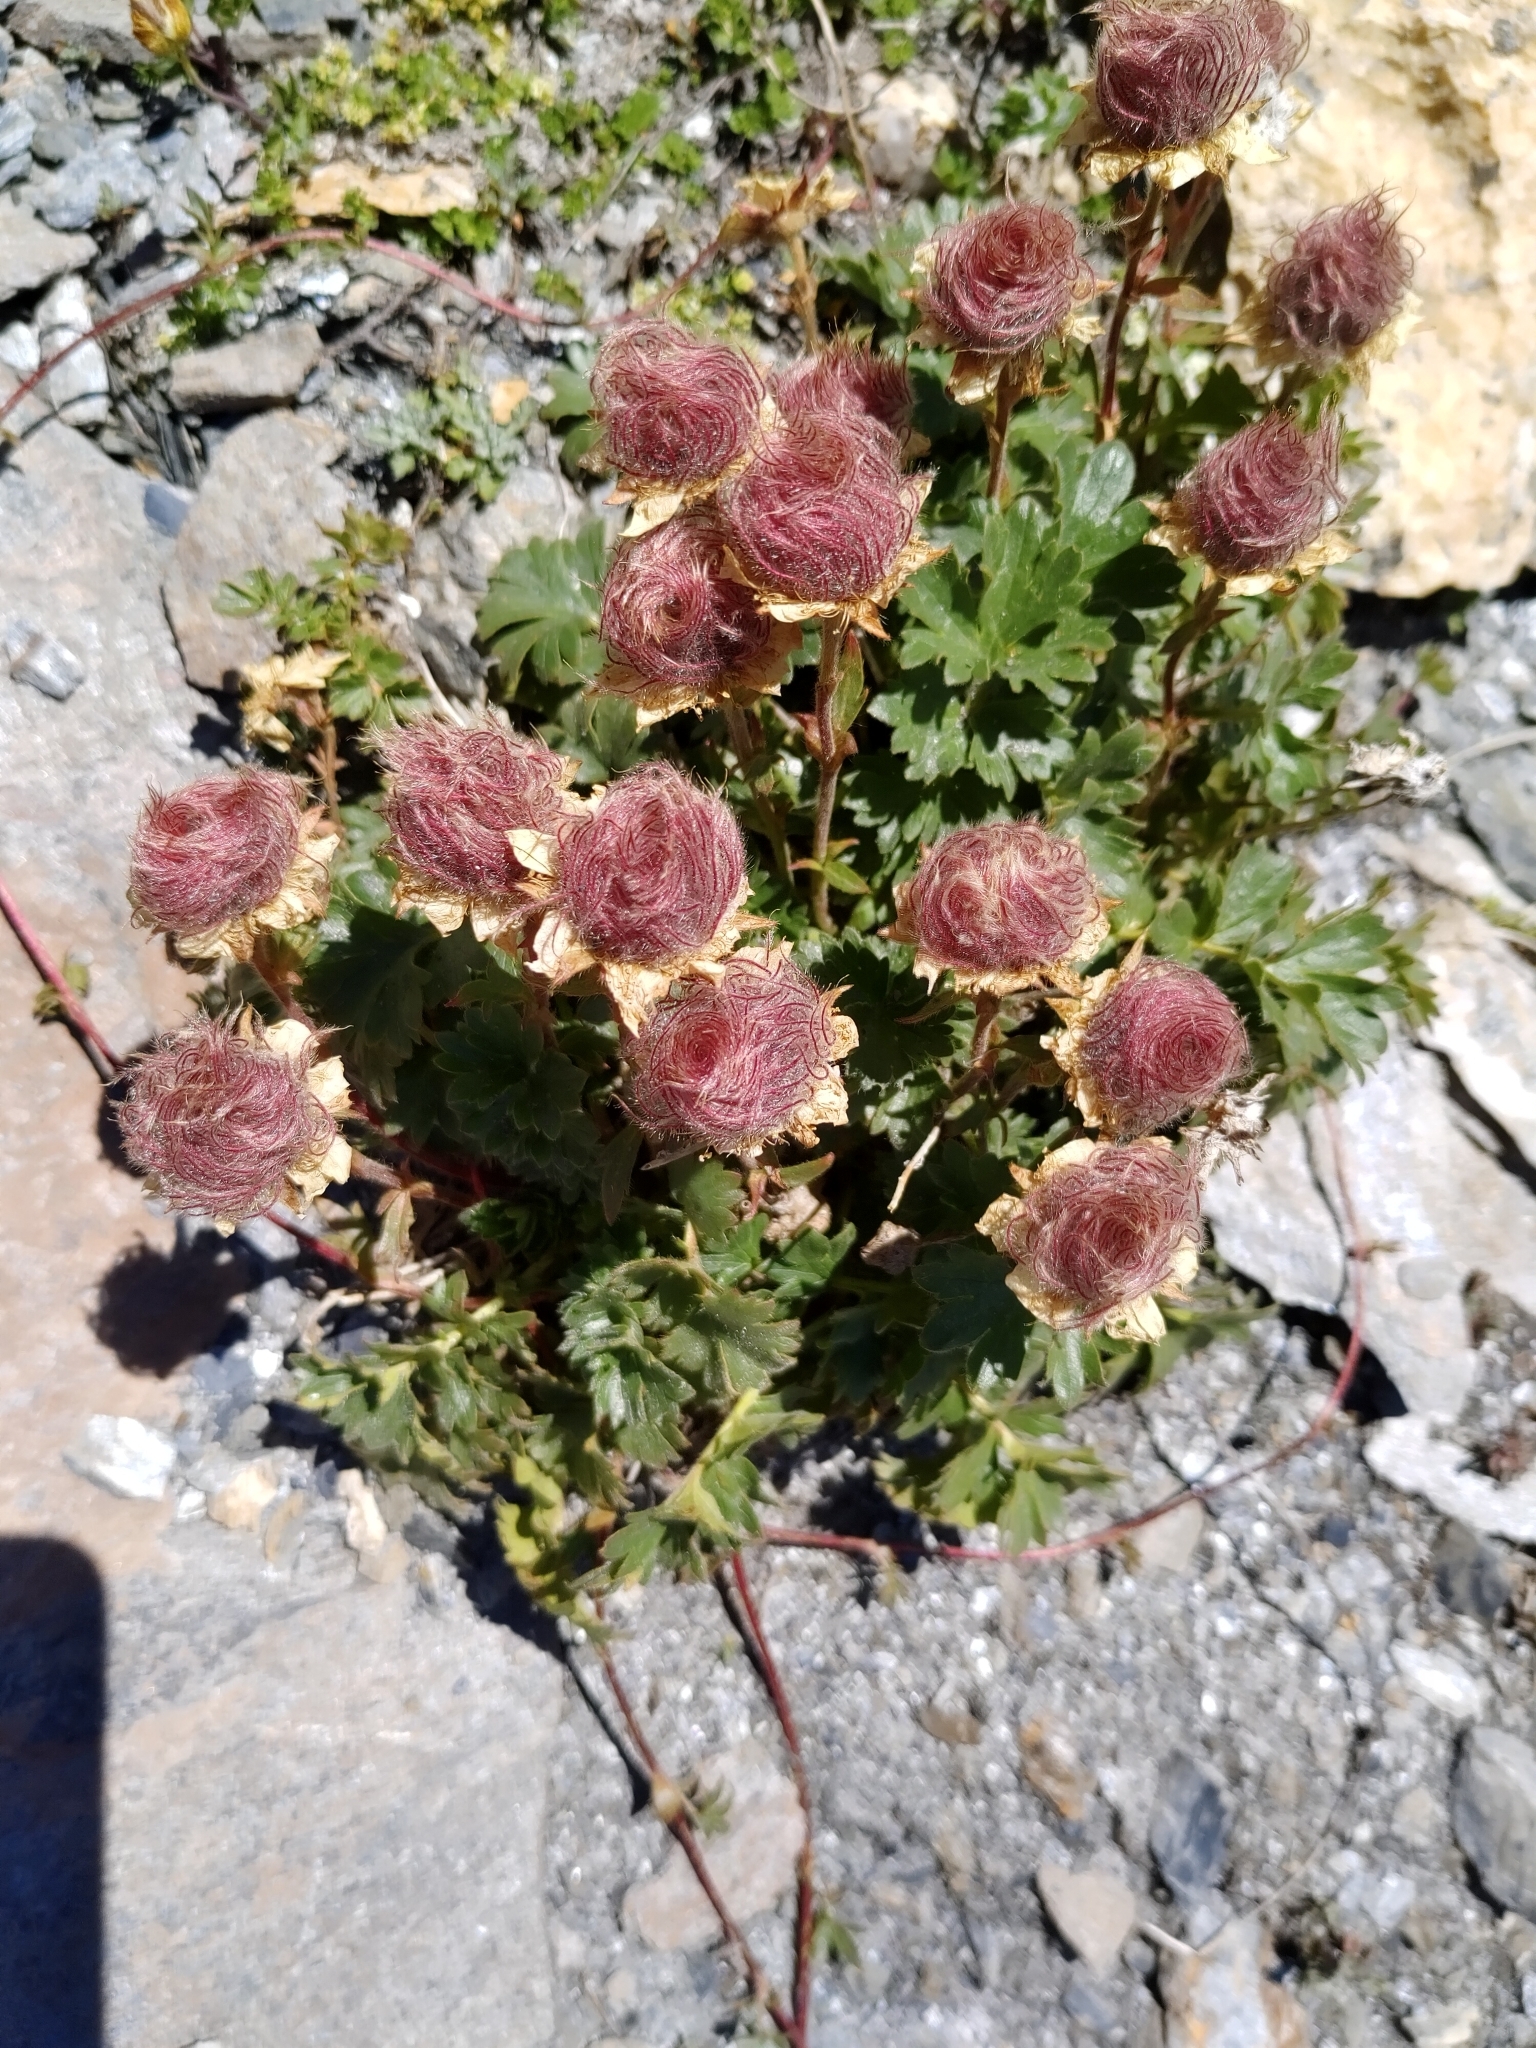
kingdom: Plantae
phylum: Tracheophyta
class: Magnoliopsida
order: Rosales
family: Rosaceae
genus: Geum
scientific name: Geum reptans
